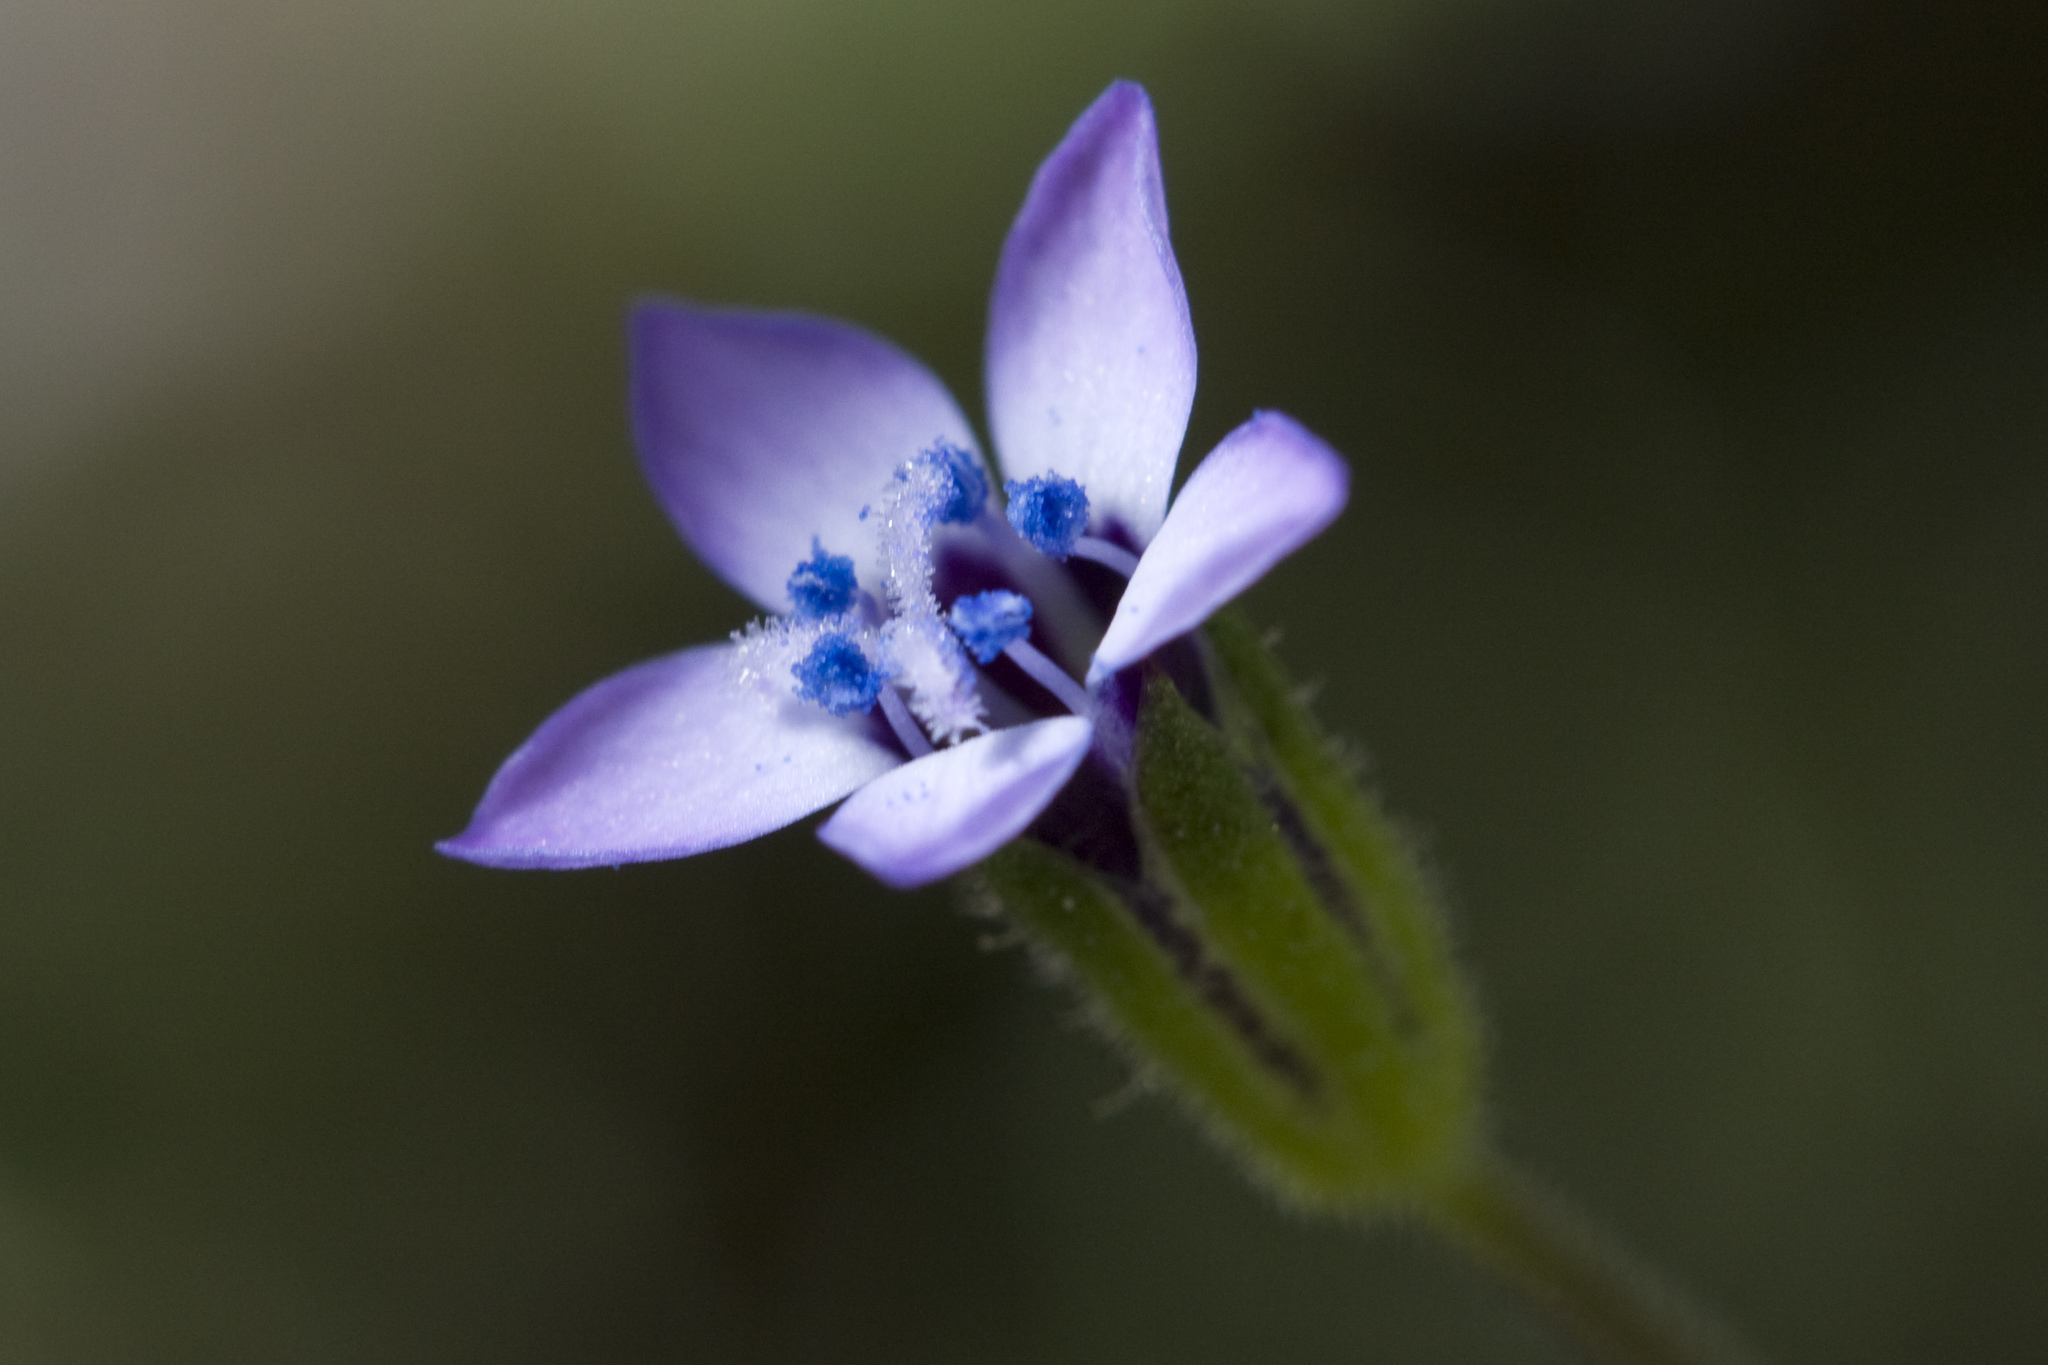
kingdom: Plantae
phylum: Tracheophyta
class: Magnoliopsida
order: Ericales
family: Polemoniaceae
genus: Gilia
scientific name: Gilia clivorum
